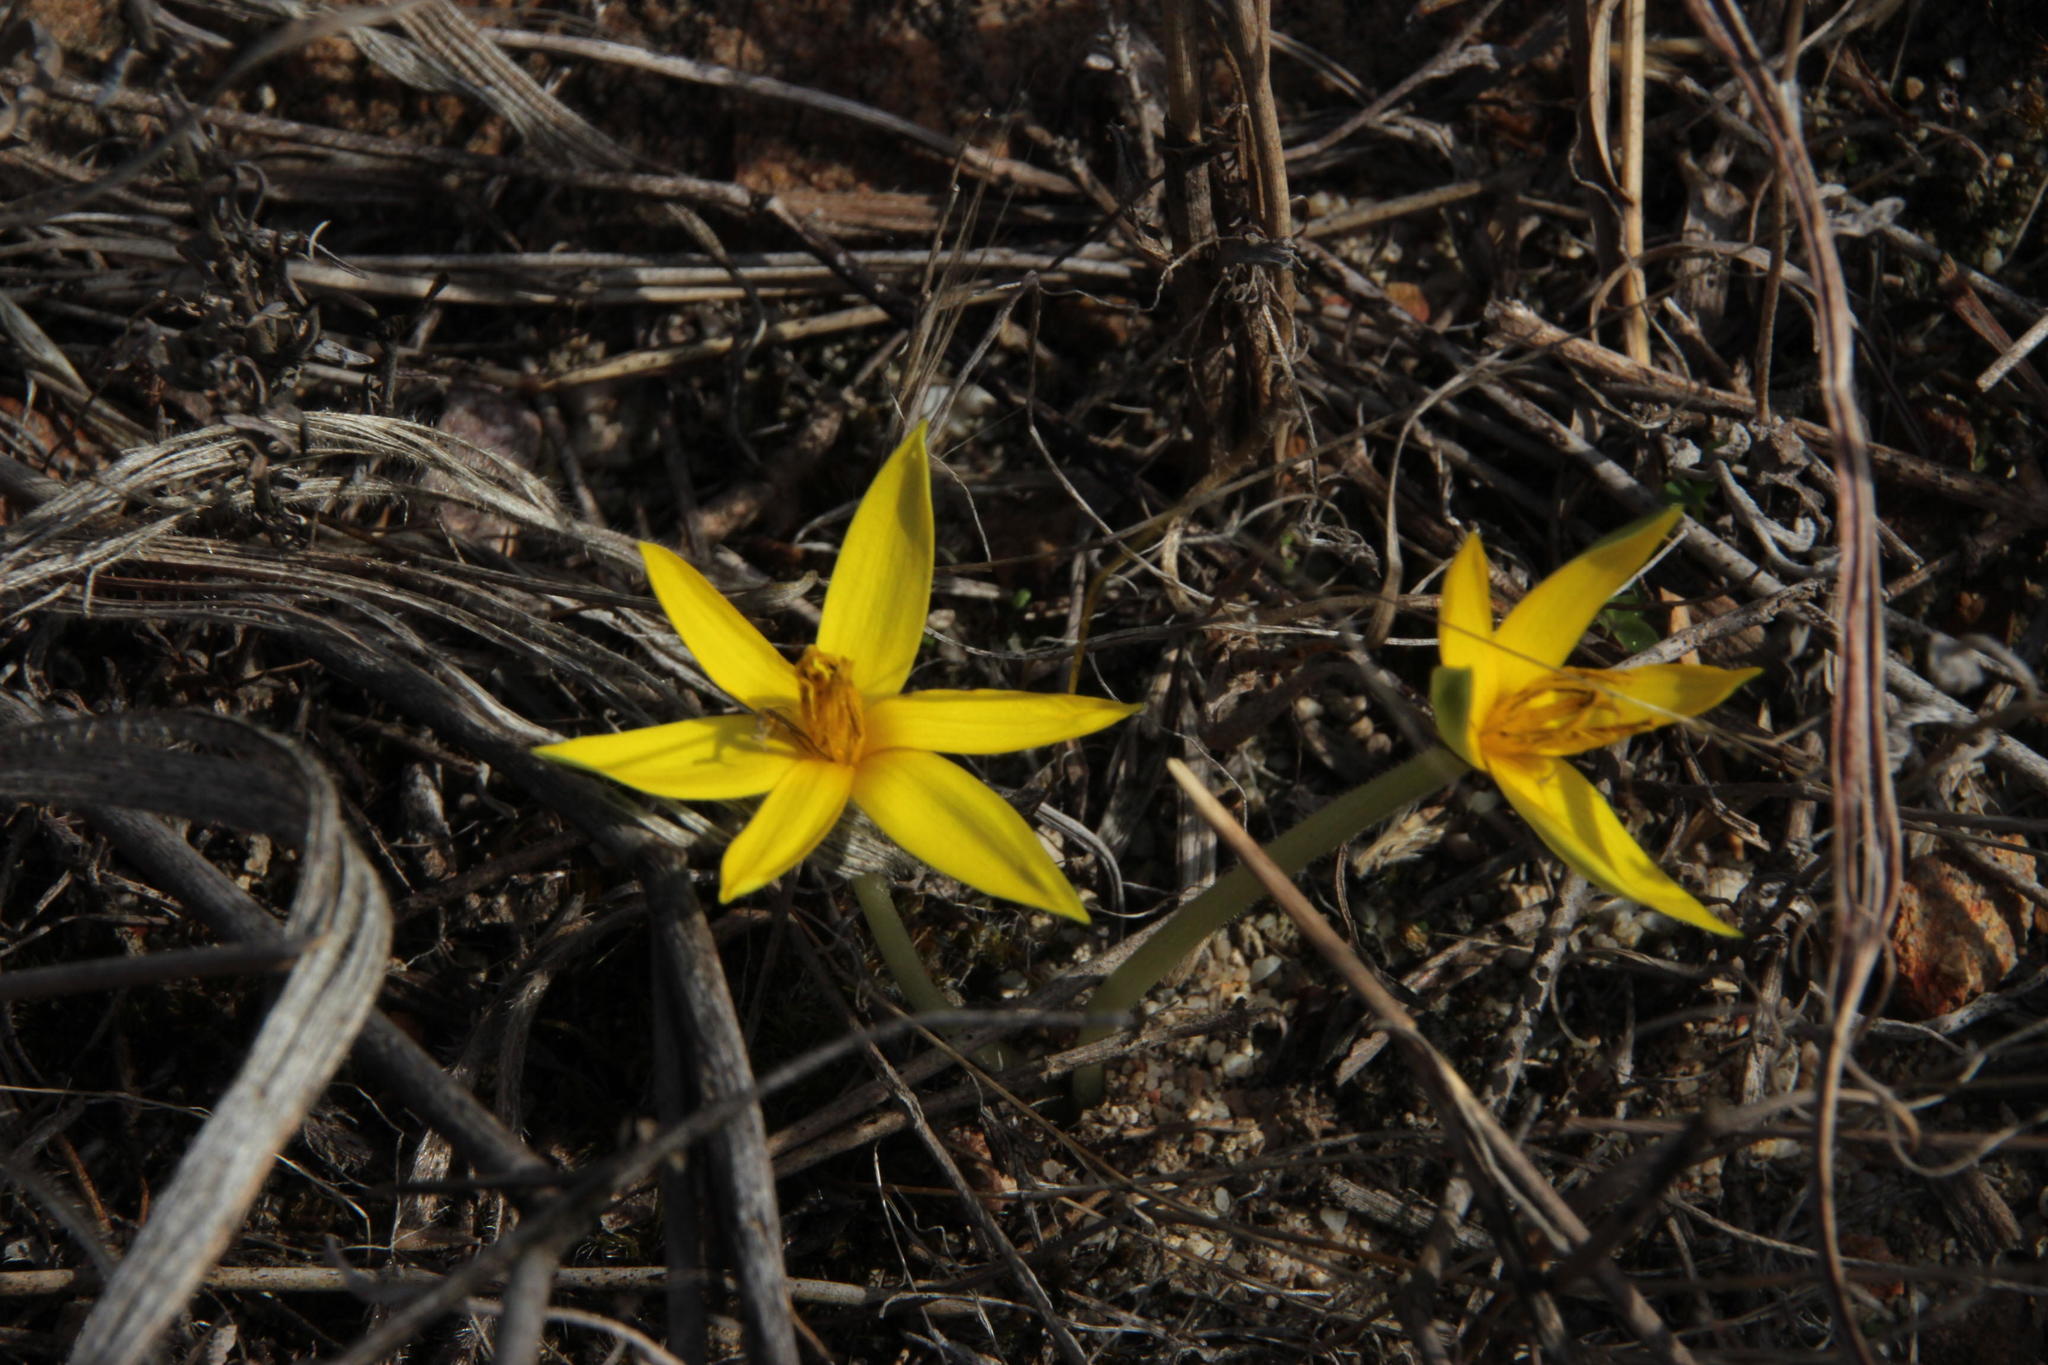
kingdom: Plantae
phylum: Tracheophyta
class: Liliopsida
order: Asparagales
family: Hypoxidaceae
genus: Empodium
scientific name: Empodium plicatum
